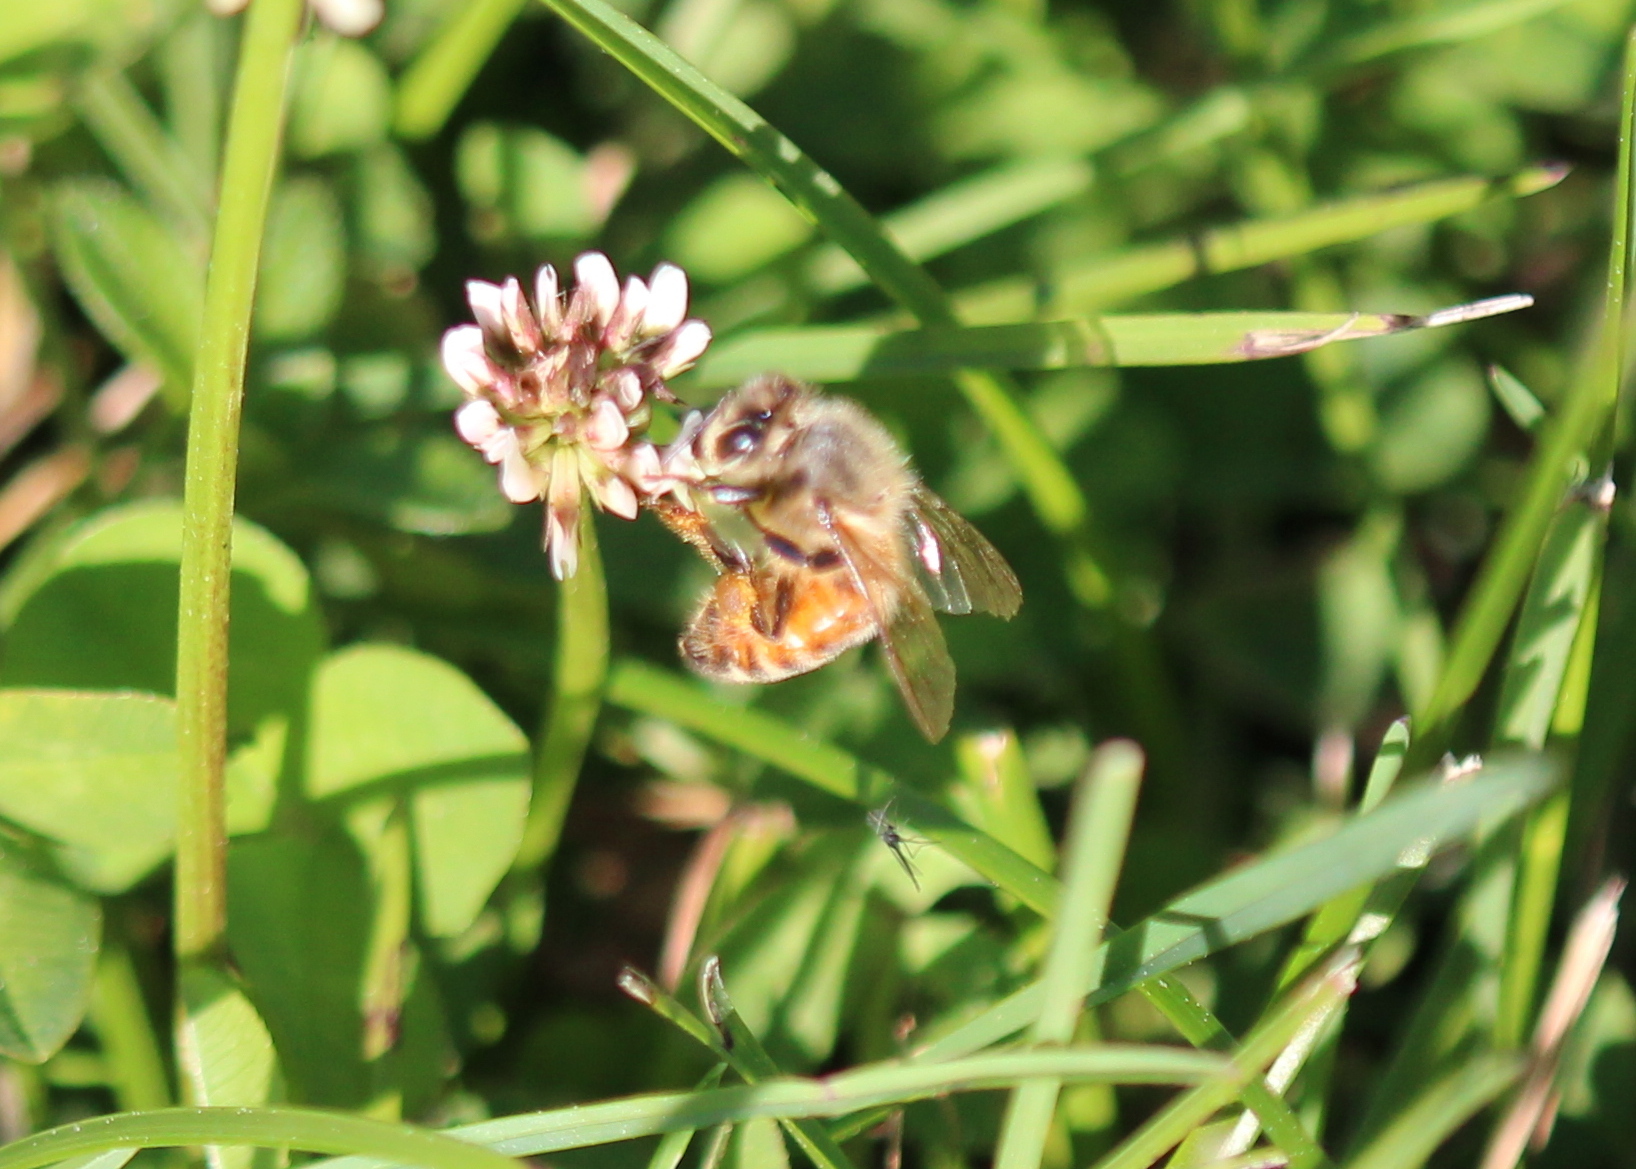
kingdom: Animalia
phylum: Arthropoda
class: Insecta
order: Hymenoptera
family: Apidae
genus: Apis
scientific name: Apis mellifera
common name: Honey bee
